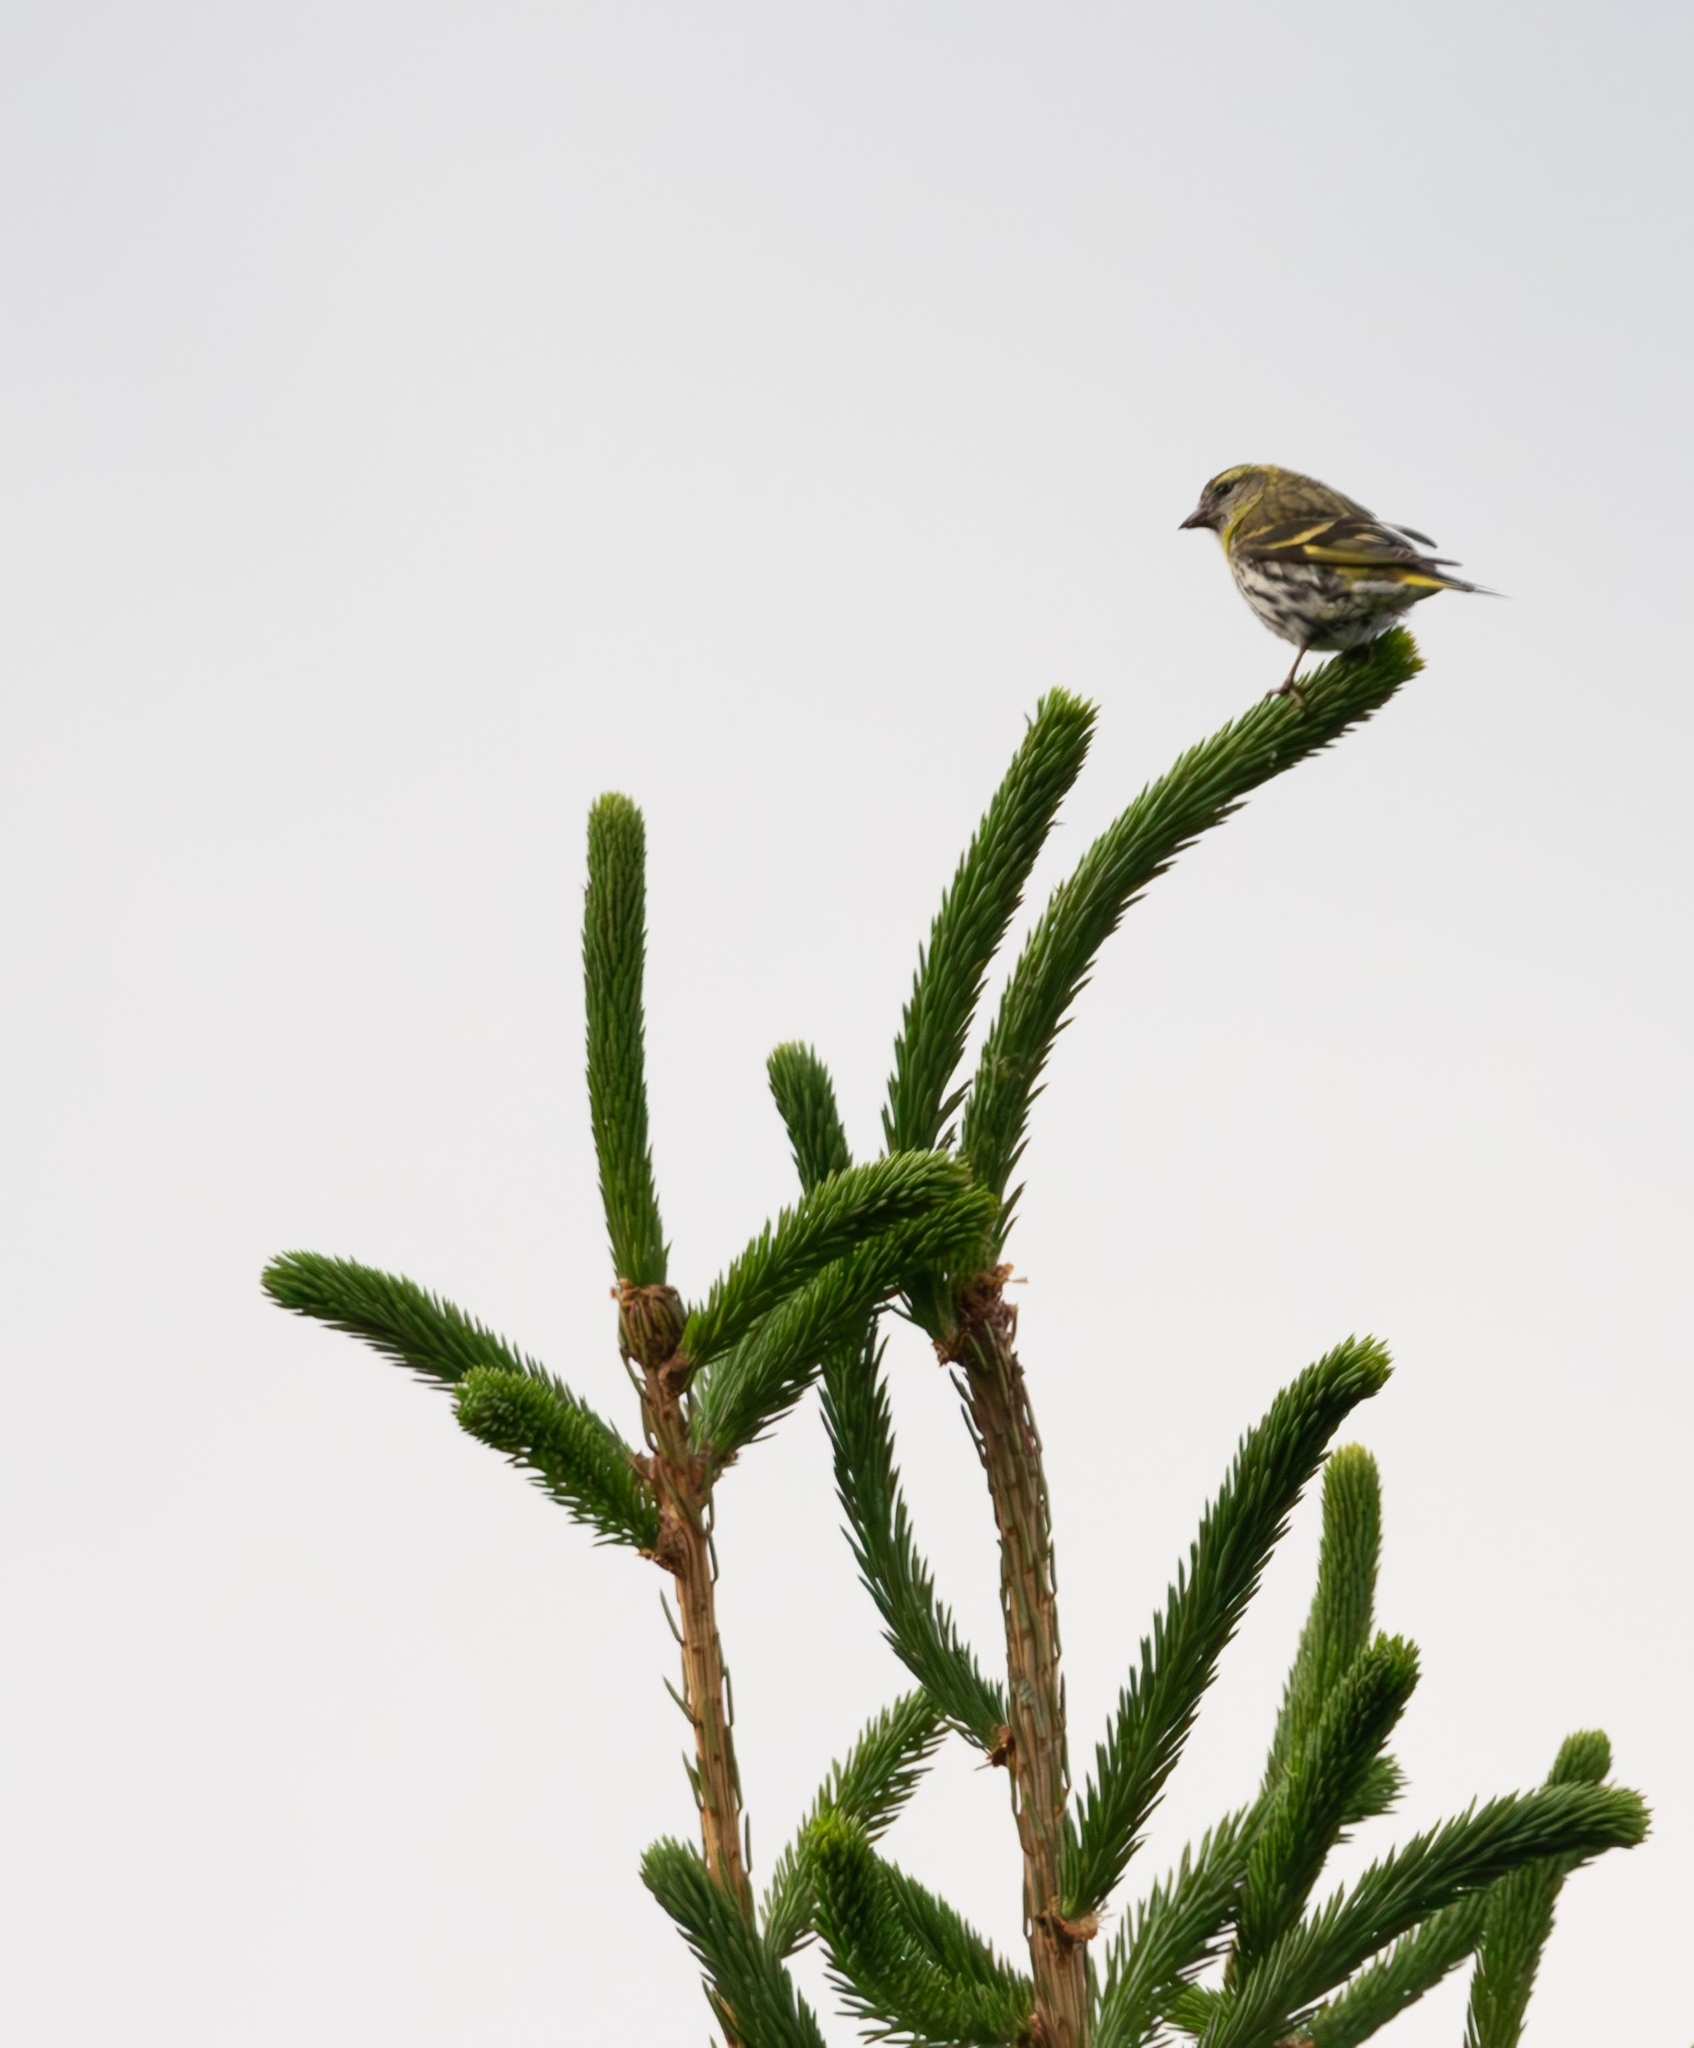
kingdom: Animalia
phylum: Chordata
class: Aves
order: Passeriformes
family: Fringillidae
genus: Spinus
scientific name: Spinus spinus
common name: Eurasian siskin
